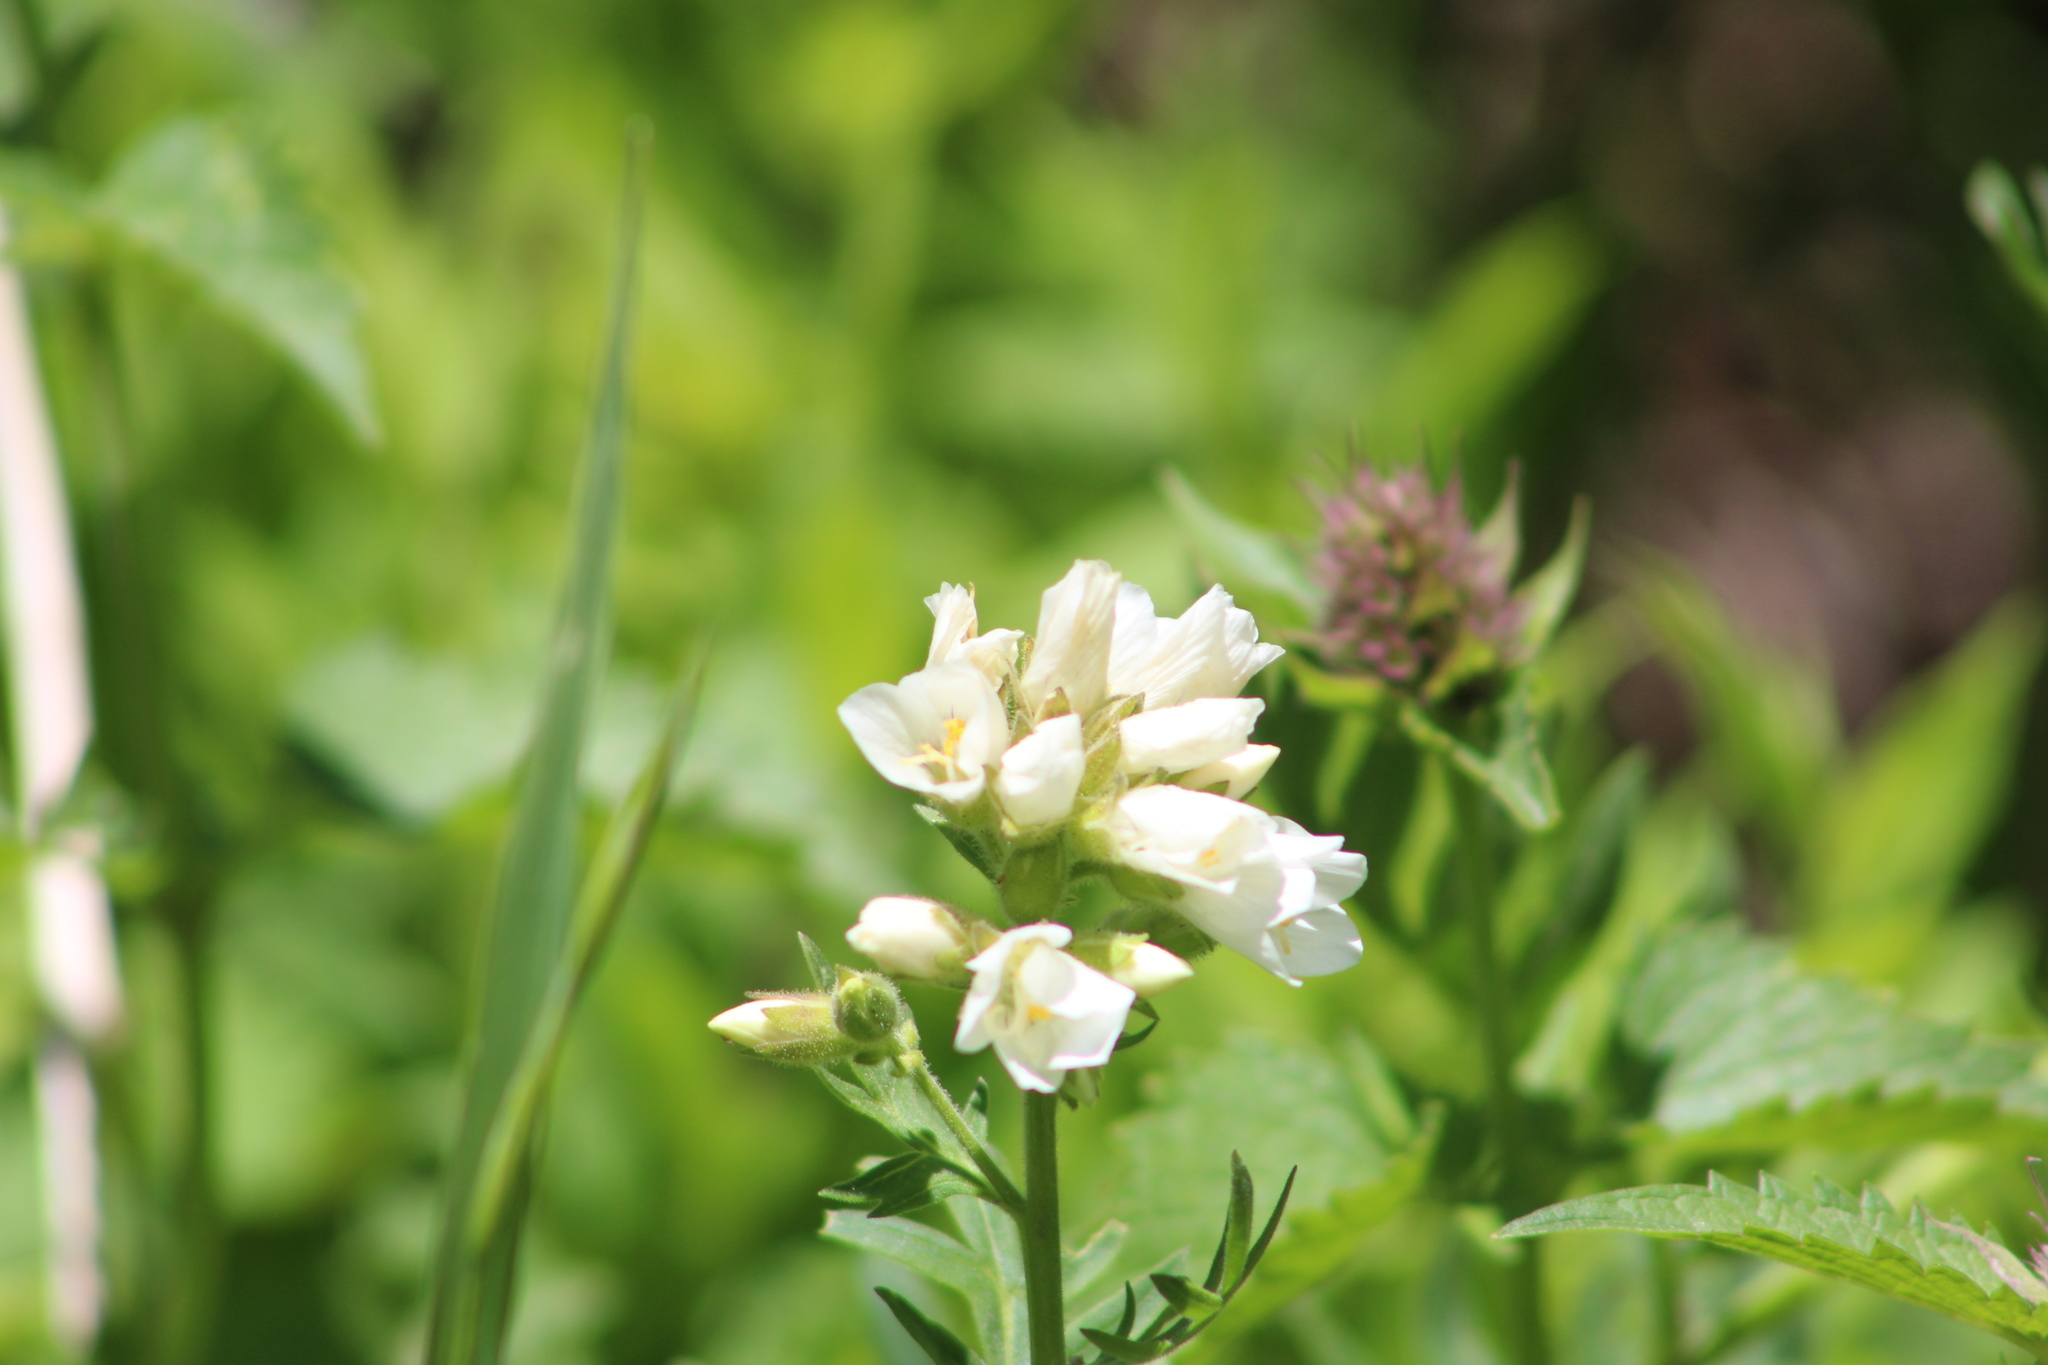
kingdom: Plantae
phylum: Tracheophyta
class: Magnoliopsida
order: Ericales
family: Polemoniaceae
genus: Polemonium
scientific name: Polemonium foliosissimum
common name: Leafy jacob's-ladder
